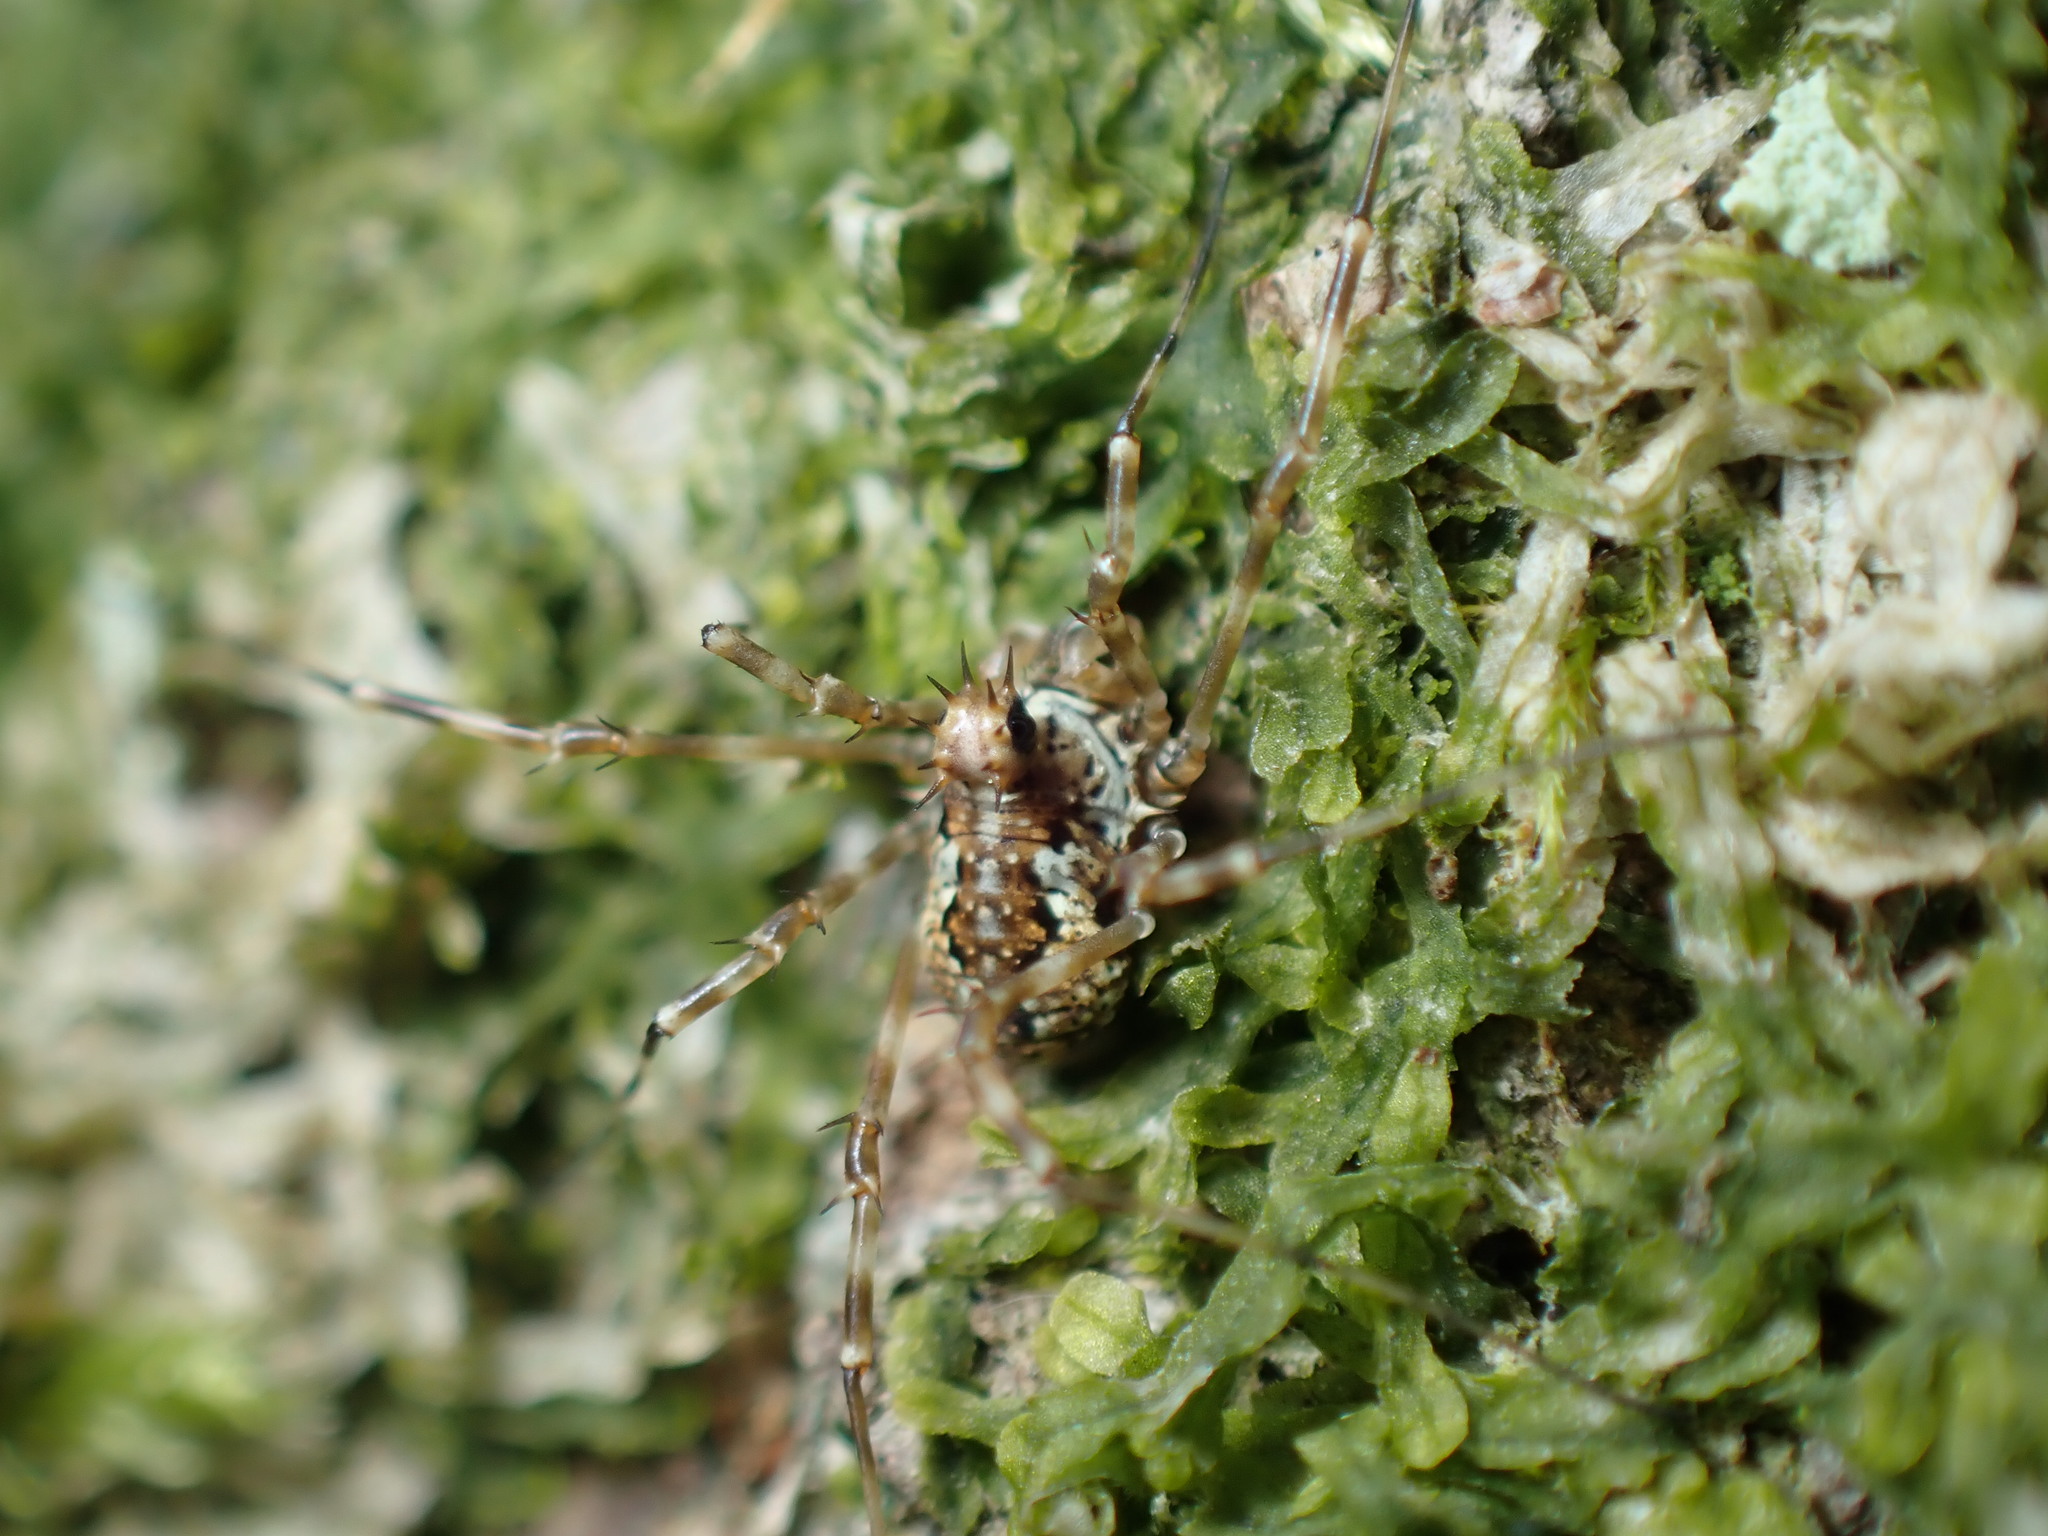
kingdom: Animalia
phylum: Arthropoda
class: Arachnida
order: Opiliones
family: Phalangiidae
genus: Megabunus
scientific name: Megabunus diadema
